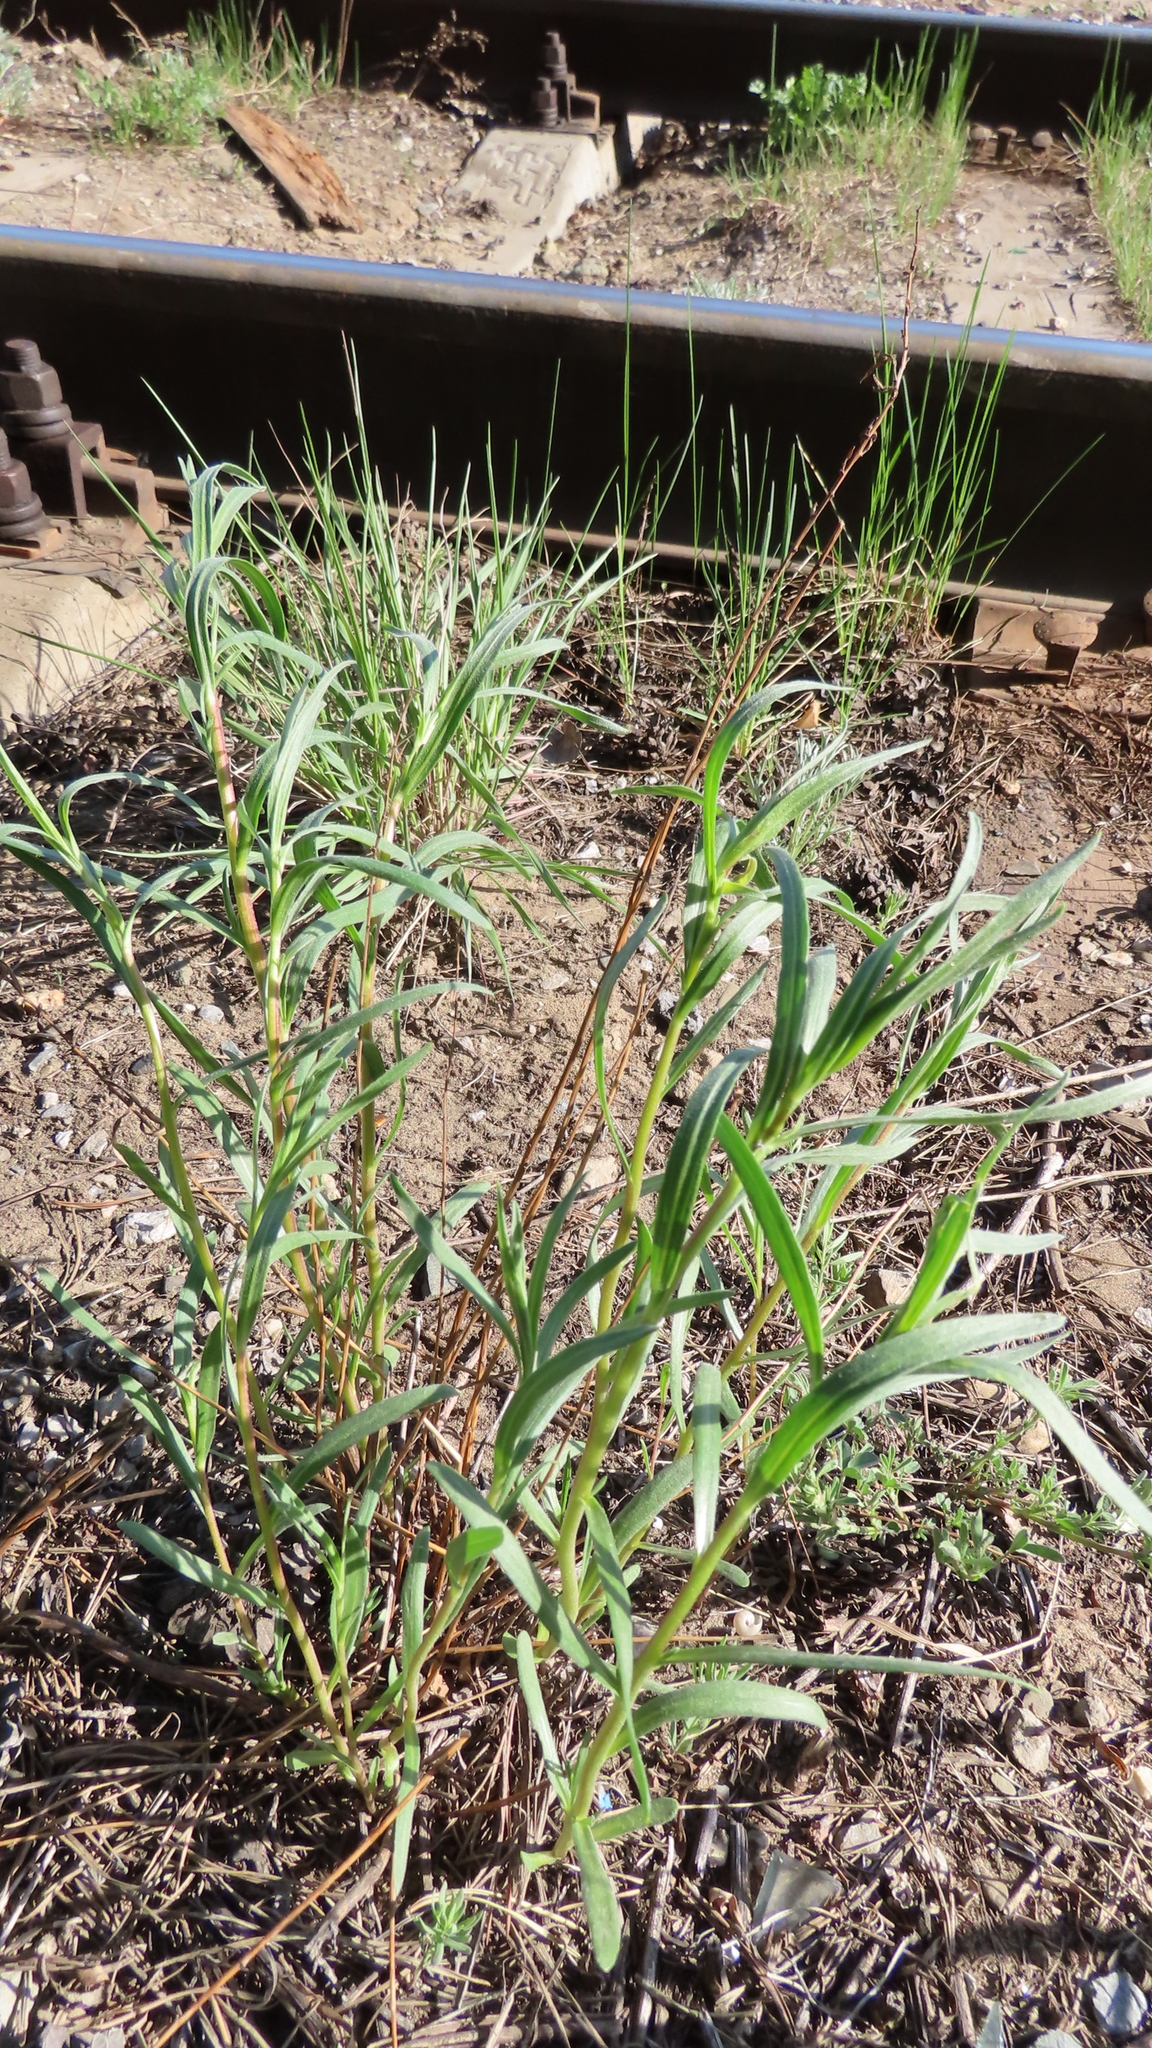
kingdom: Plantae
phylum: Tracheophyta
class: Magnoliopsida
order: Asterales
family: Asteraceae
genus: Artemisia
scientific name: Artemisia dracunculus
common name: Tarragon
